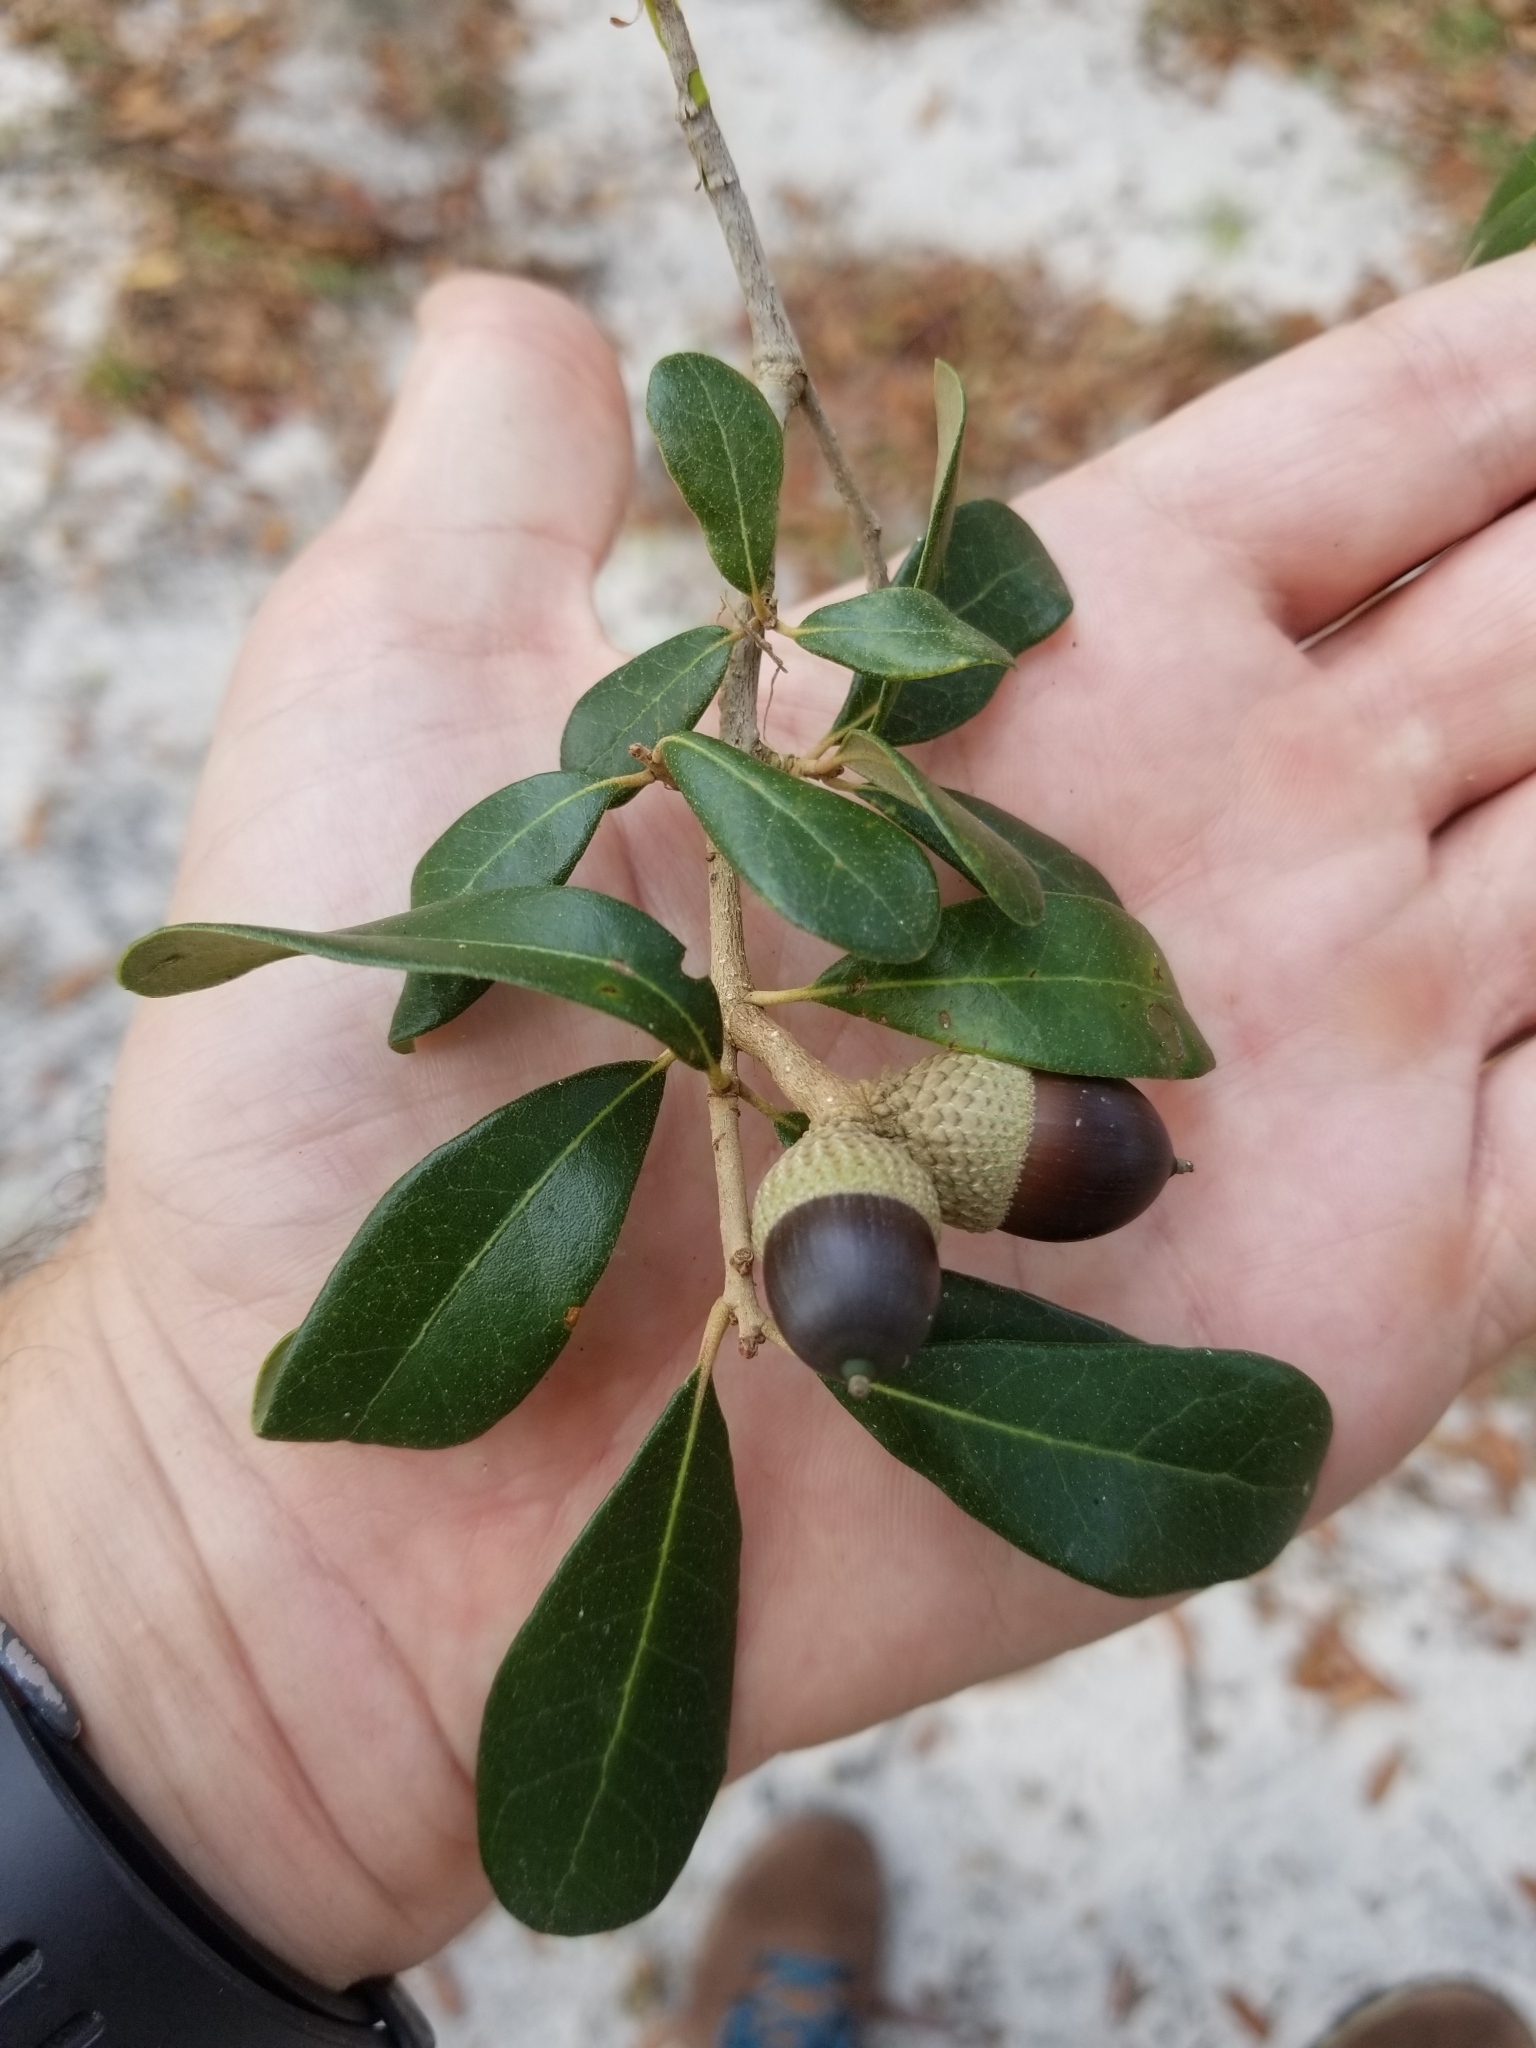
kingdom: Plantae
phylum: Tracheophyta
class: Magnoliopsida
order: Fagales
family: Fagaceae
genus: Quercus
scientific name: Quercus virginiana
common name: Southern live oak
